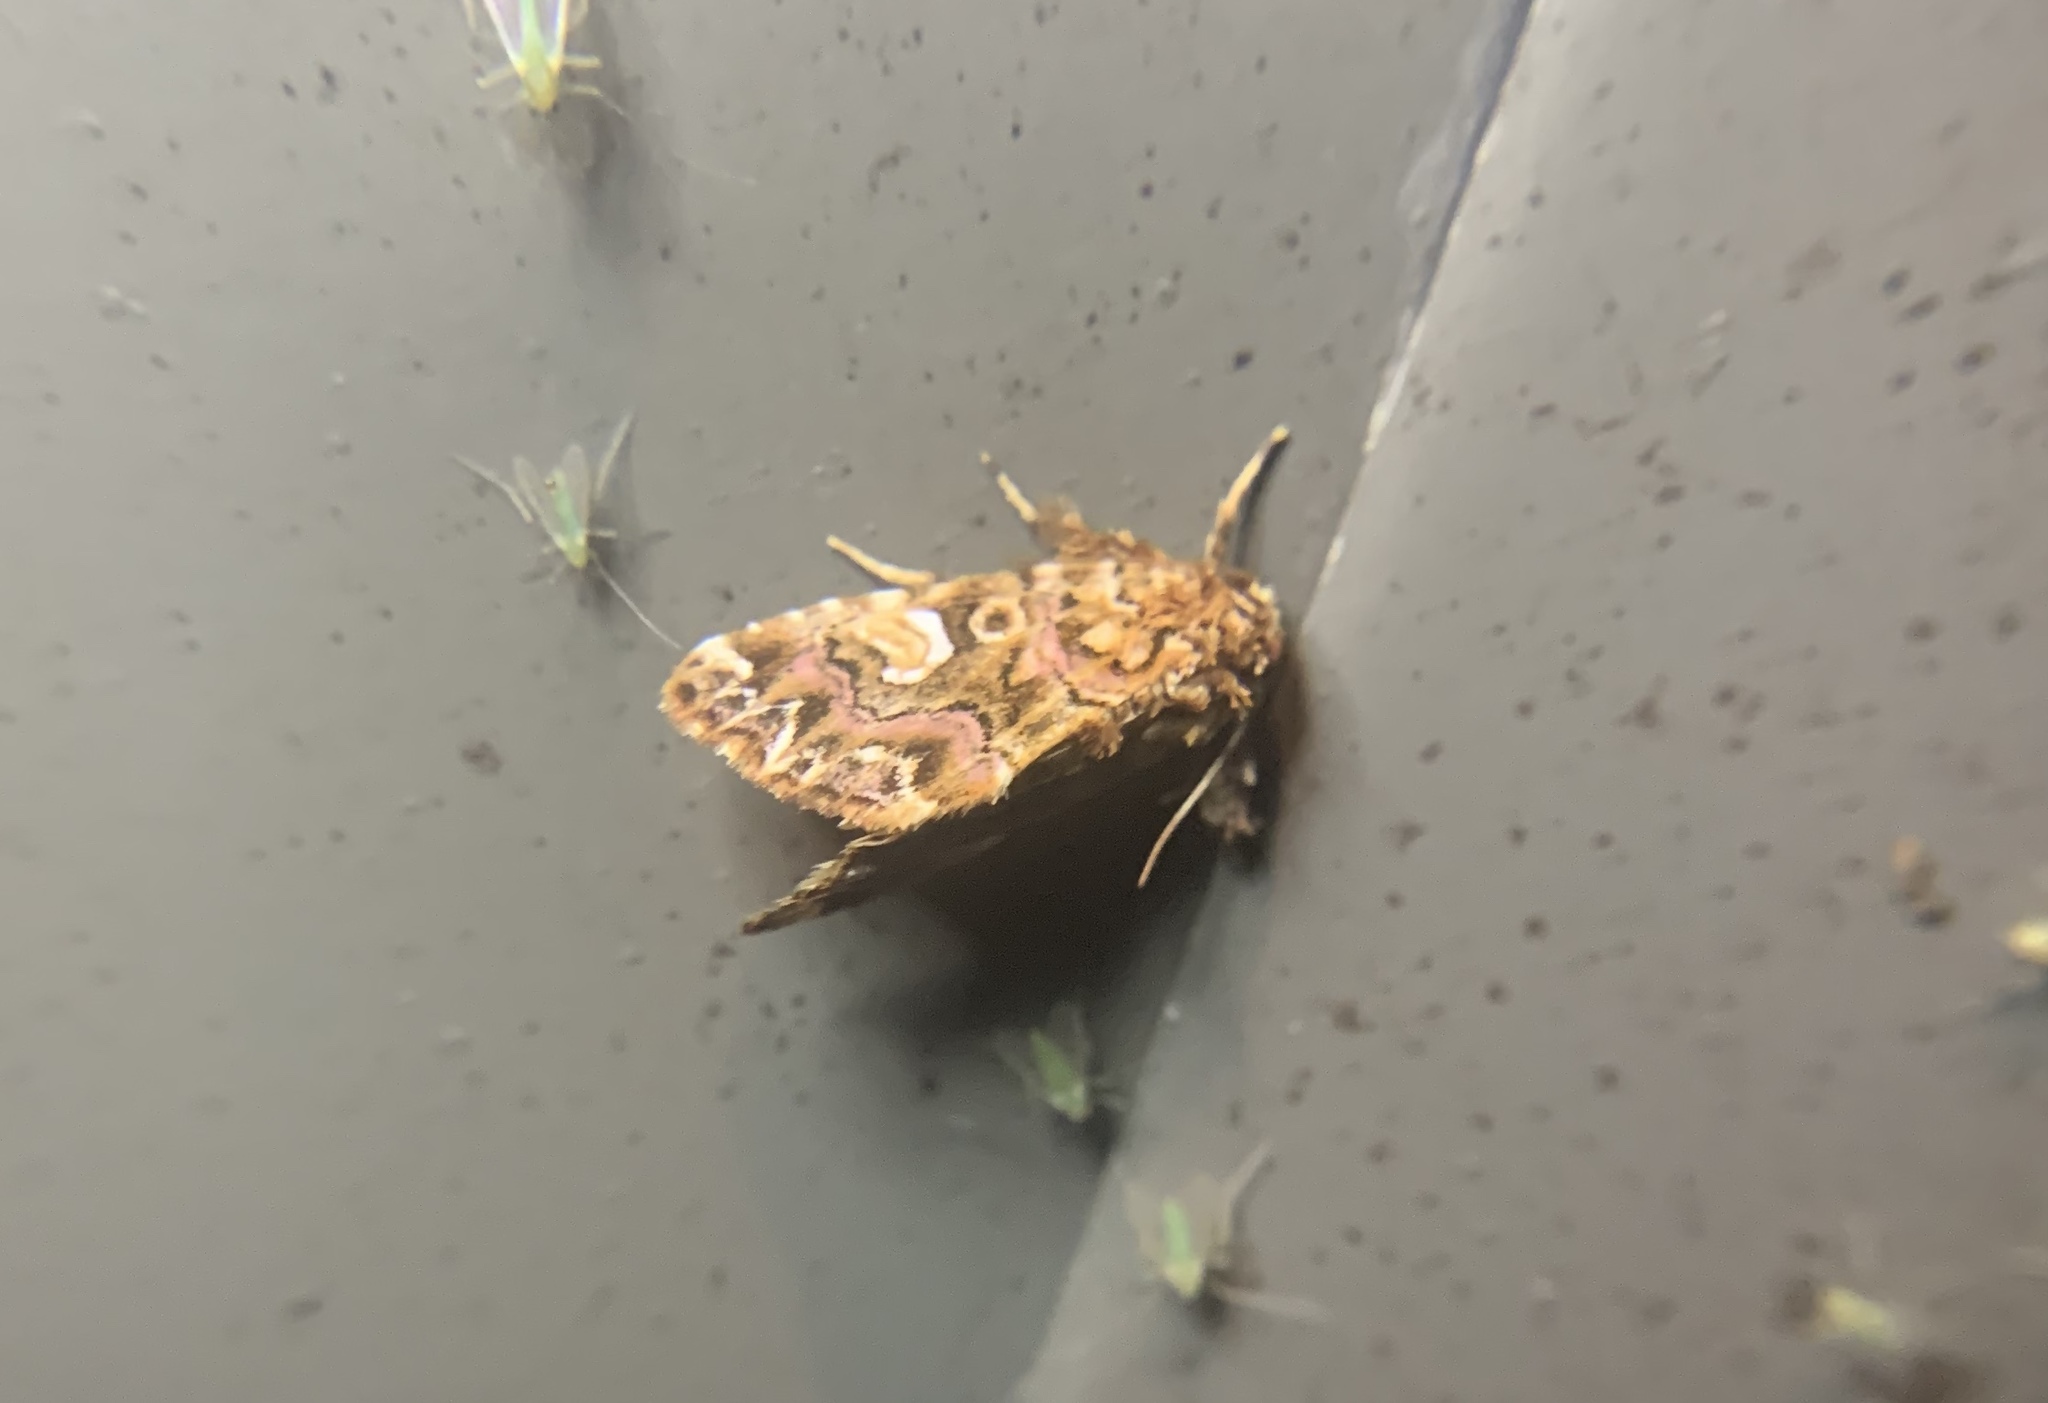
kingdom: Animalia
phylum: Arthropoda
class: Insecta
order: Lepidoptera
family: Noctuidae
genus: Callopistria
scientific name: Callopistria mollissima
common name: Pink-shaded fern moth
